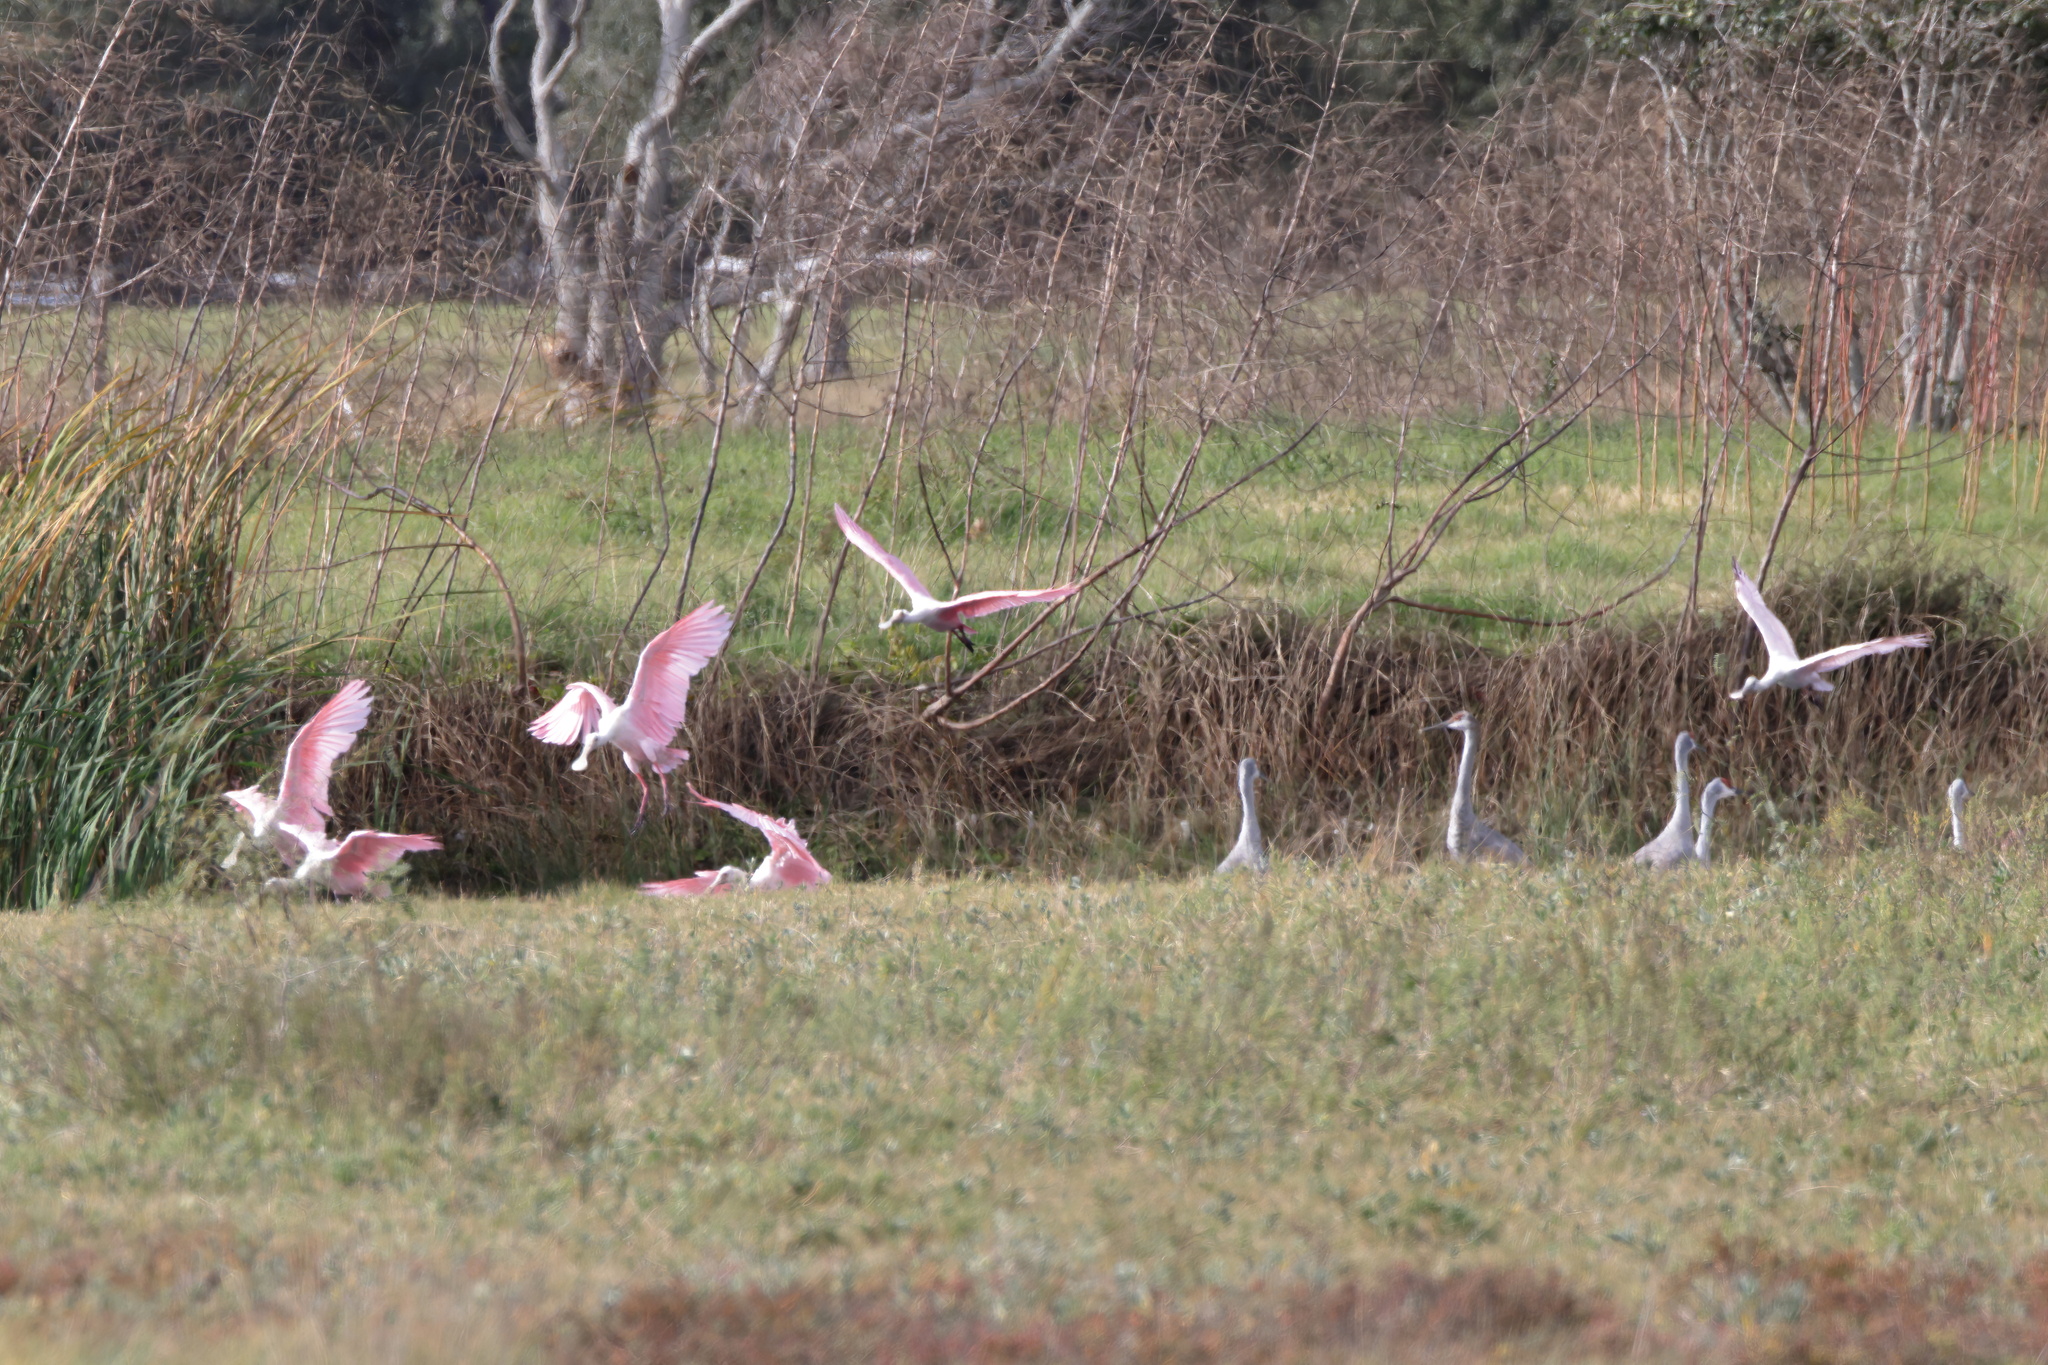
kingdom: Animalia
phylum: Chordata
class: Aves
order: Pelecaniformes
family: Threskiornithidae
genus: Platalea
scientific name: Platalea ajaja
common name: Roseate spoonbill
